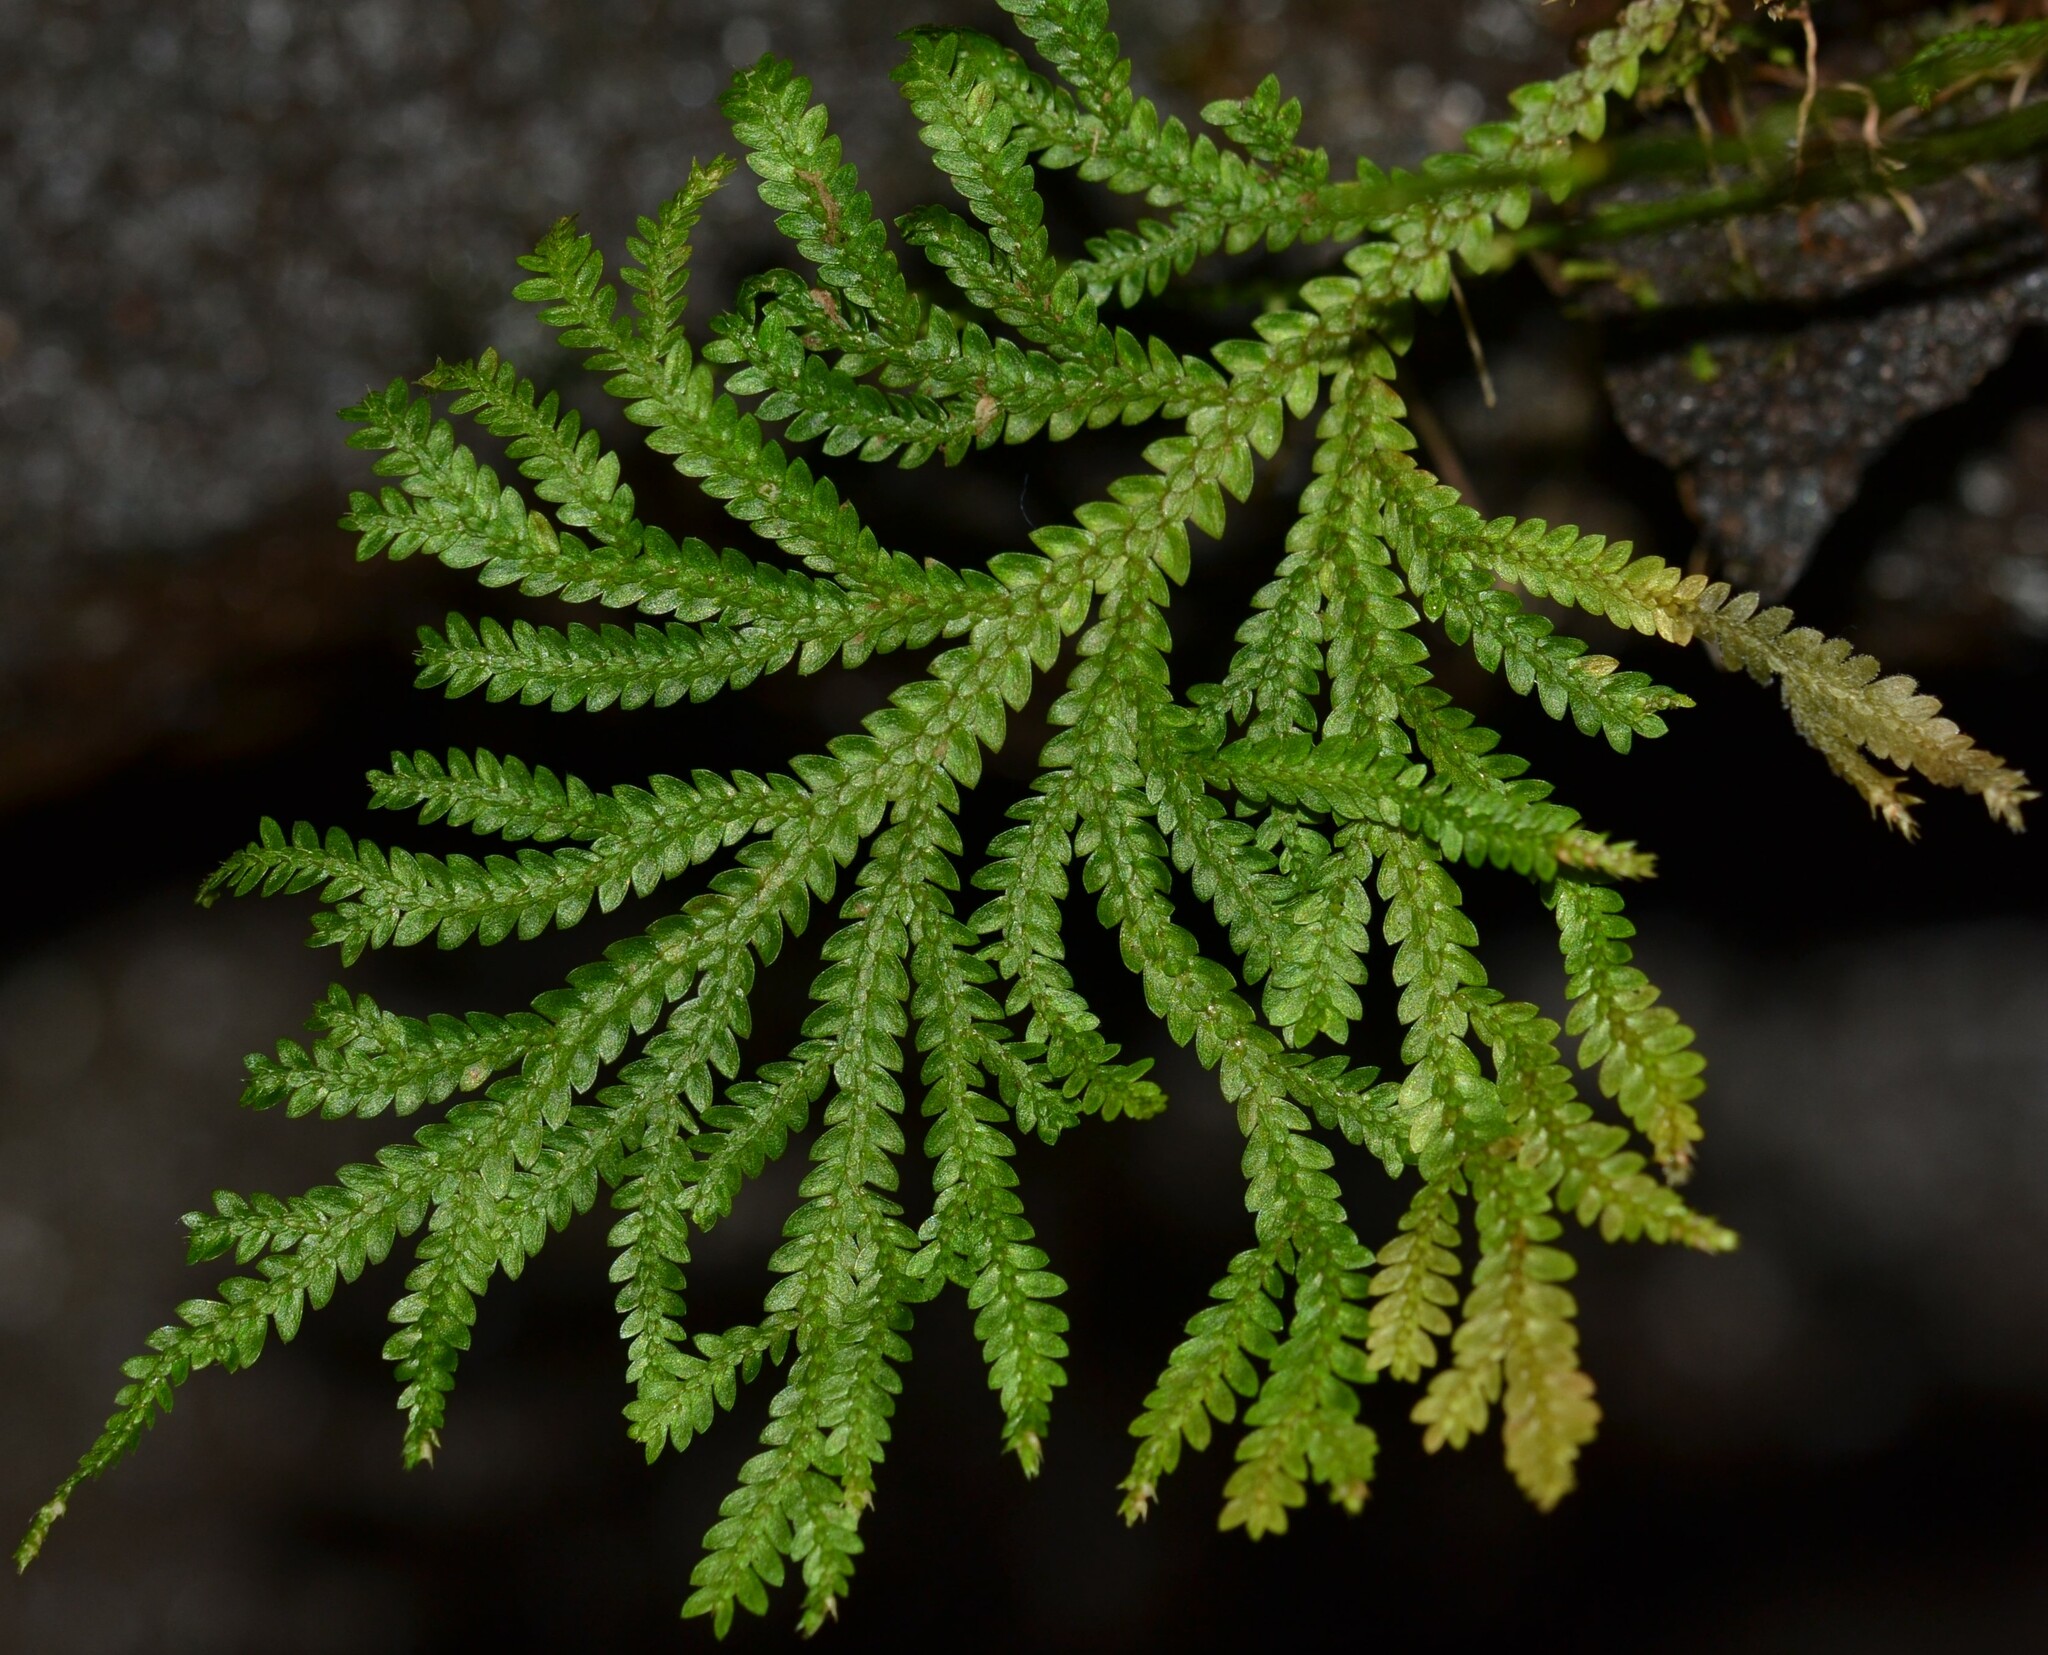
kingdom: Plantae
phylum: Tracheophyta
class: Lycopodiopsida
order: Selaginellales
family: Selaginellaceae
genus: Selaginella
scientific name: Selaginella kraussiana
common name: Krauss' spikemoss
